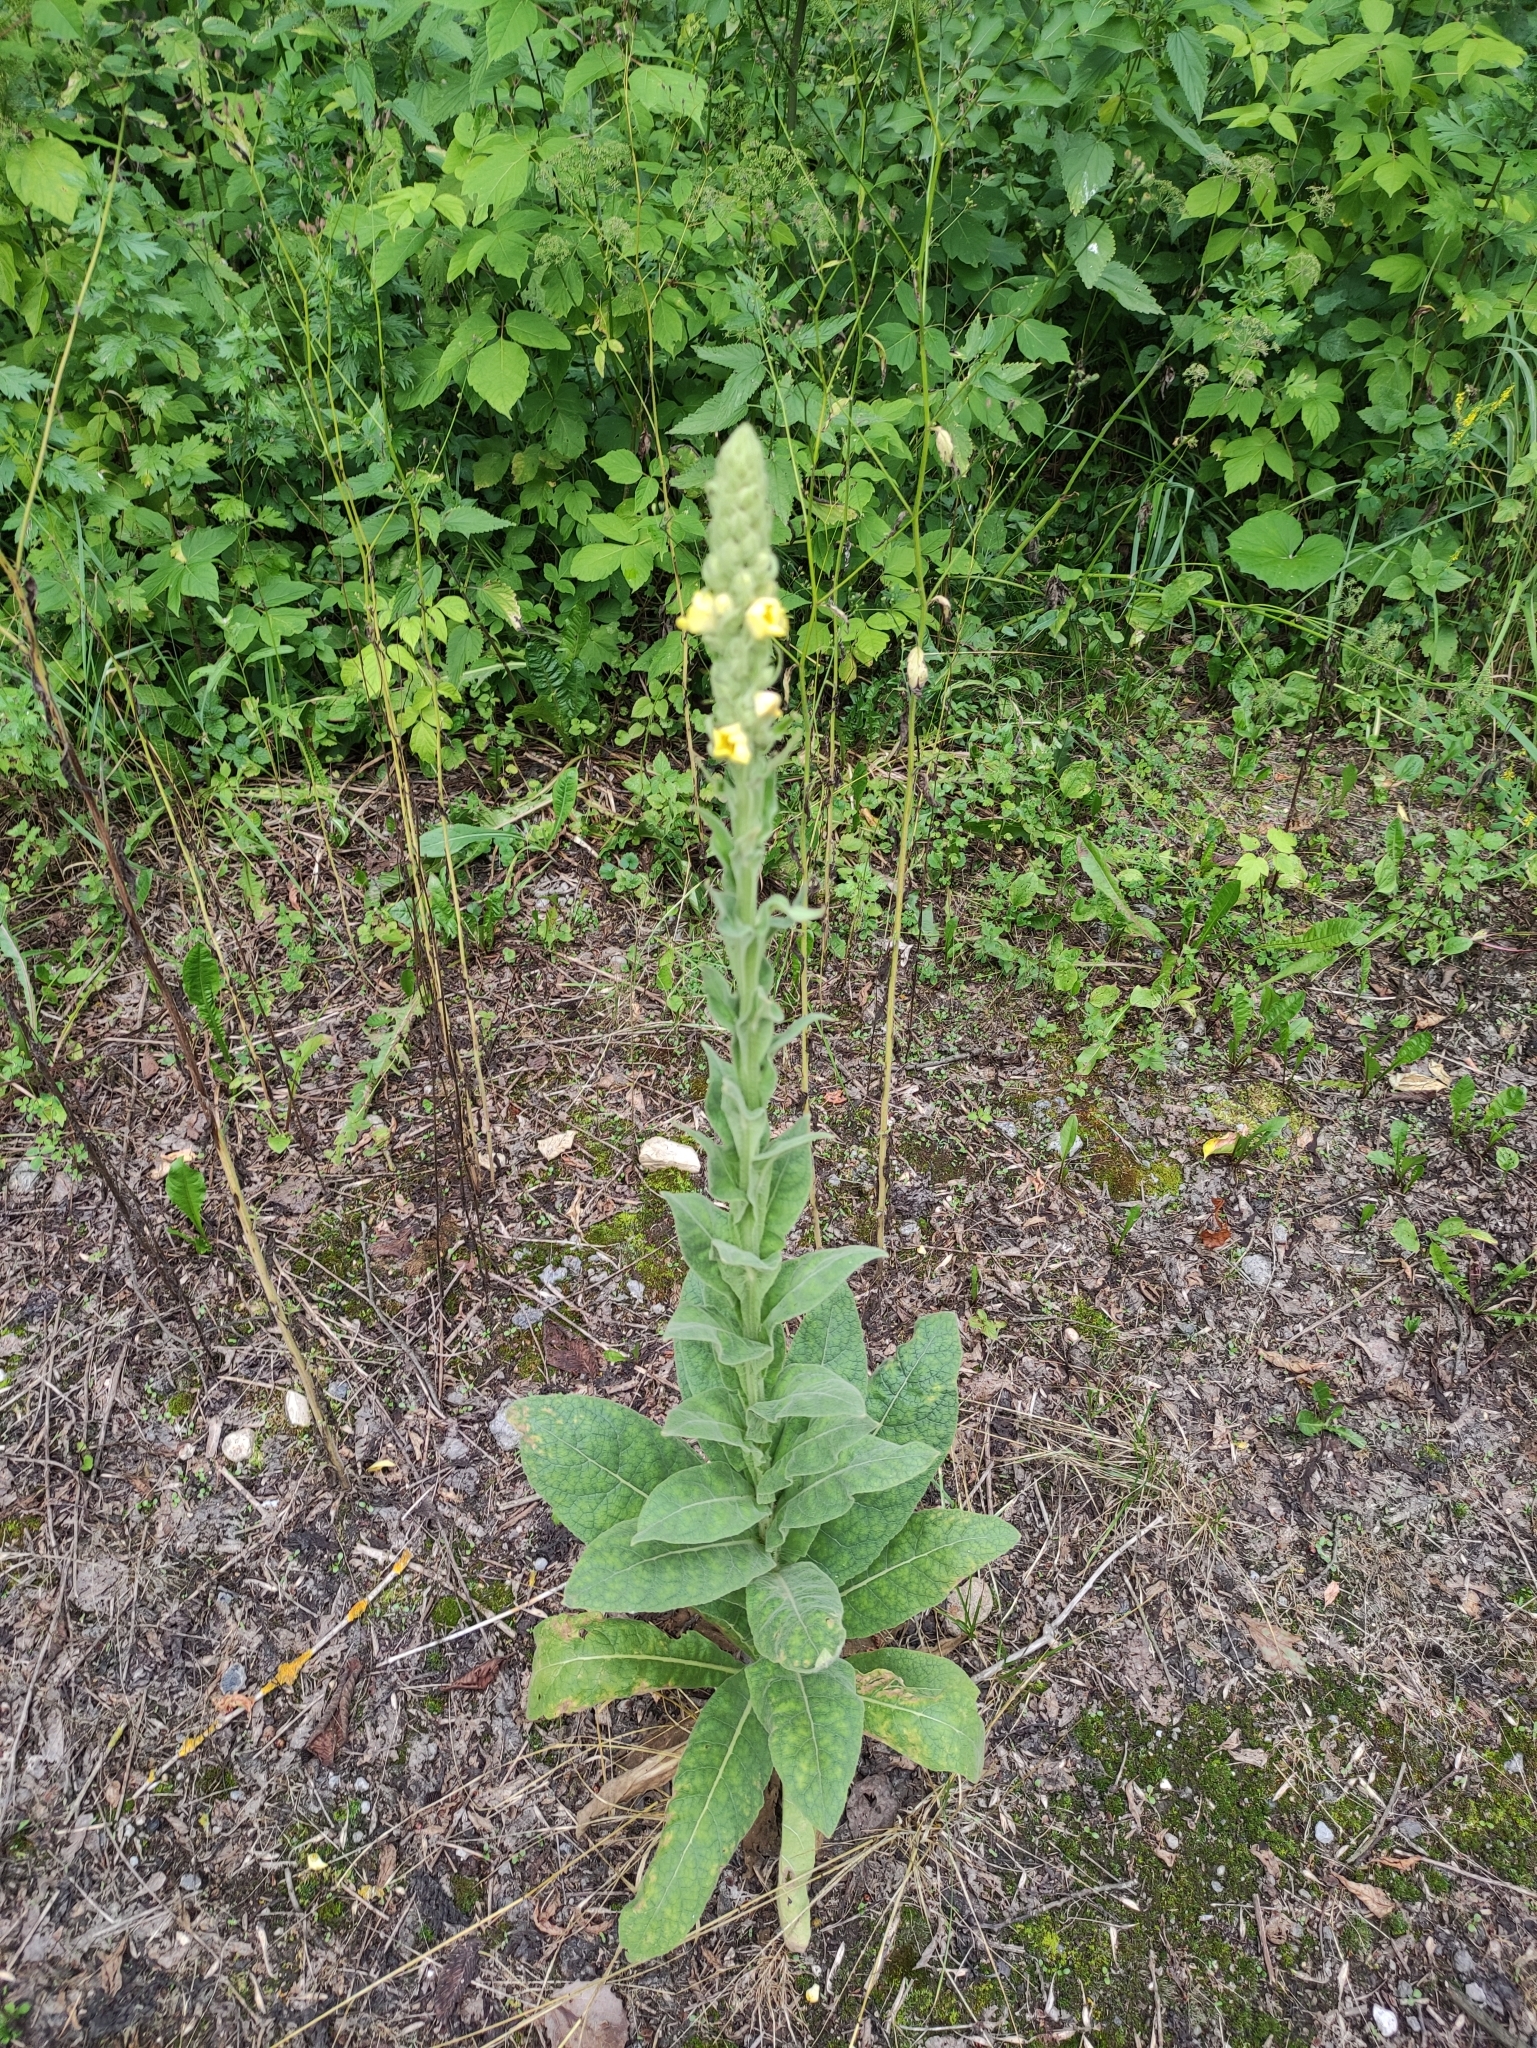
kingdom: Plantae
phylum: Tracheophyta
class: Magnoliopsida
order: Lamiales
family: Scrophulariaceae
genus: Verbascum
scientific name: Verbascum thapsus
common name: Common mullein
